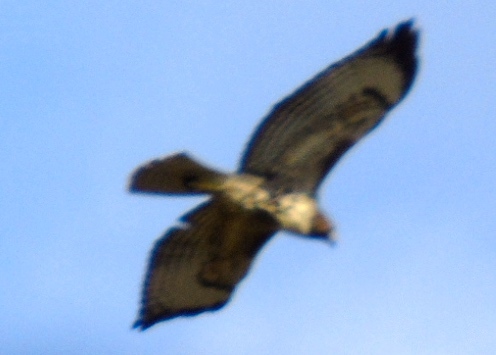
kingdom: Animalia
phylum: Chordata
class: Aves
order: Accipitriformes
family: Accipitridae
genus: Buteo
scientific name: Buteo jamaicensis
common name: Red-tailed hawk
